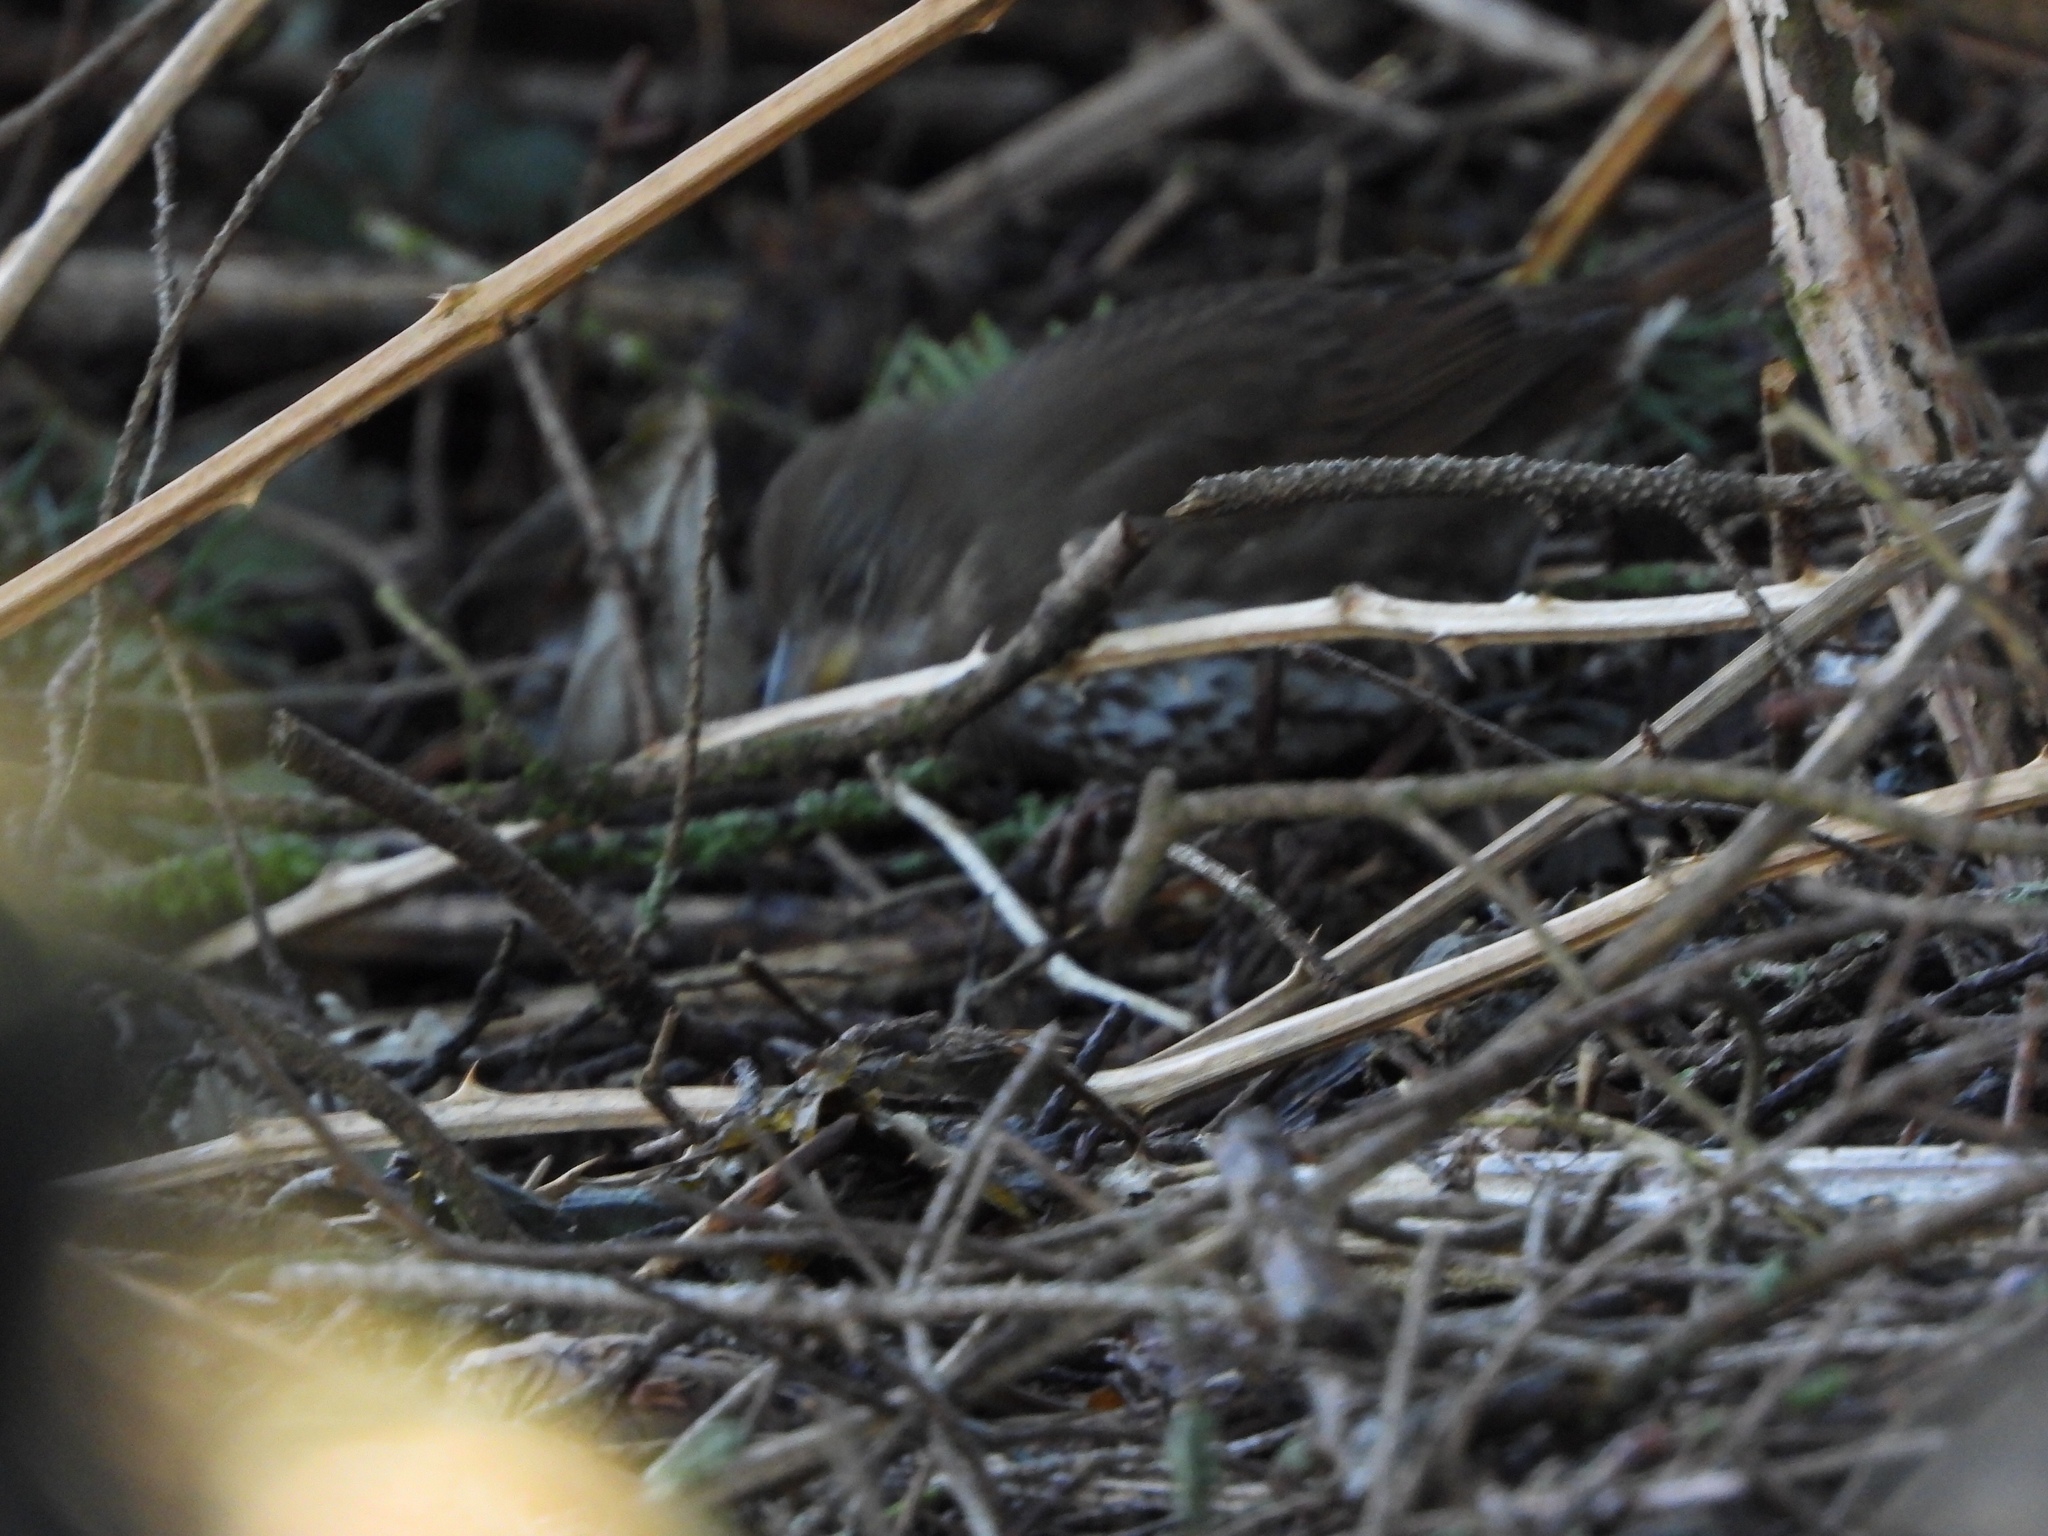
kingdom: Animalia
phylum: Chordata
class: Aves
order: Passeriformes
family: Passerellidae
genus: Passerella
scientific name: Passerella iliaca
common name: Fox sparrow
